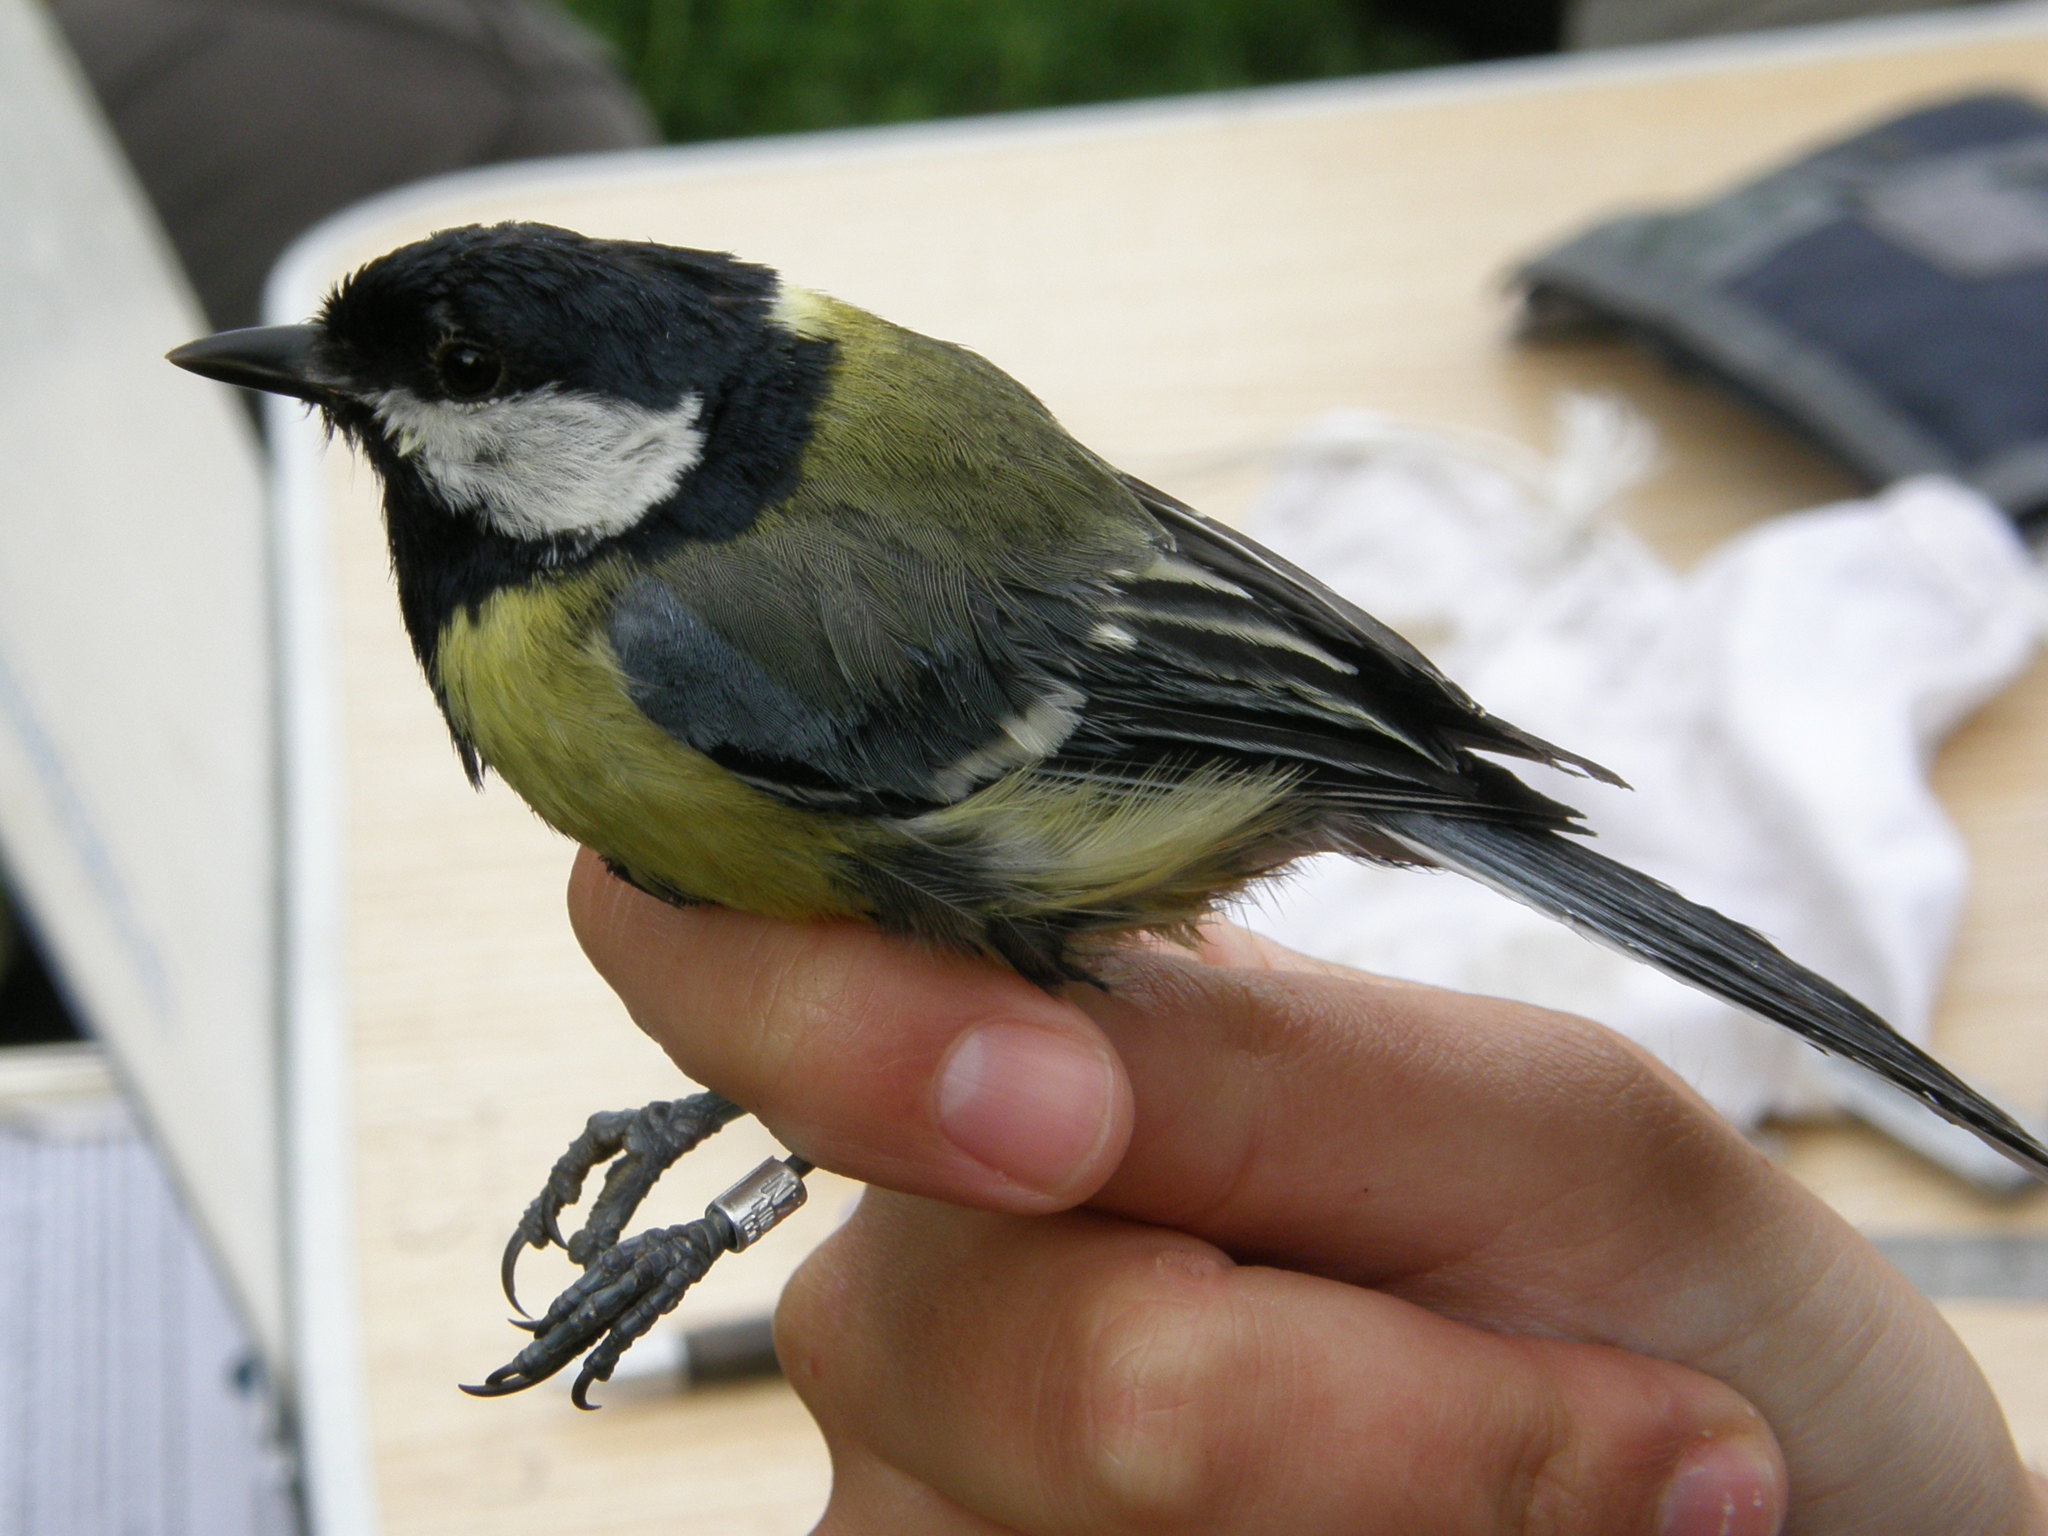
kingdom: Animalia
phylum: Chordata
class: Aves
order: Passeriformes
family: Paridae
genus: Parus
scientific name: Parus major
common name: Great tit
